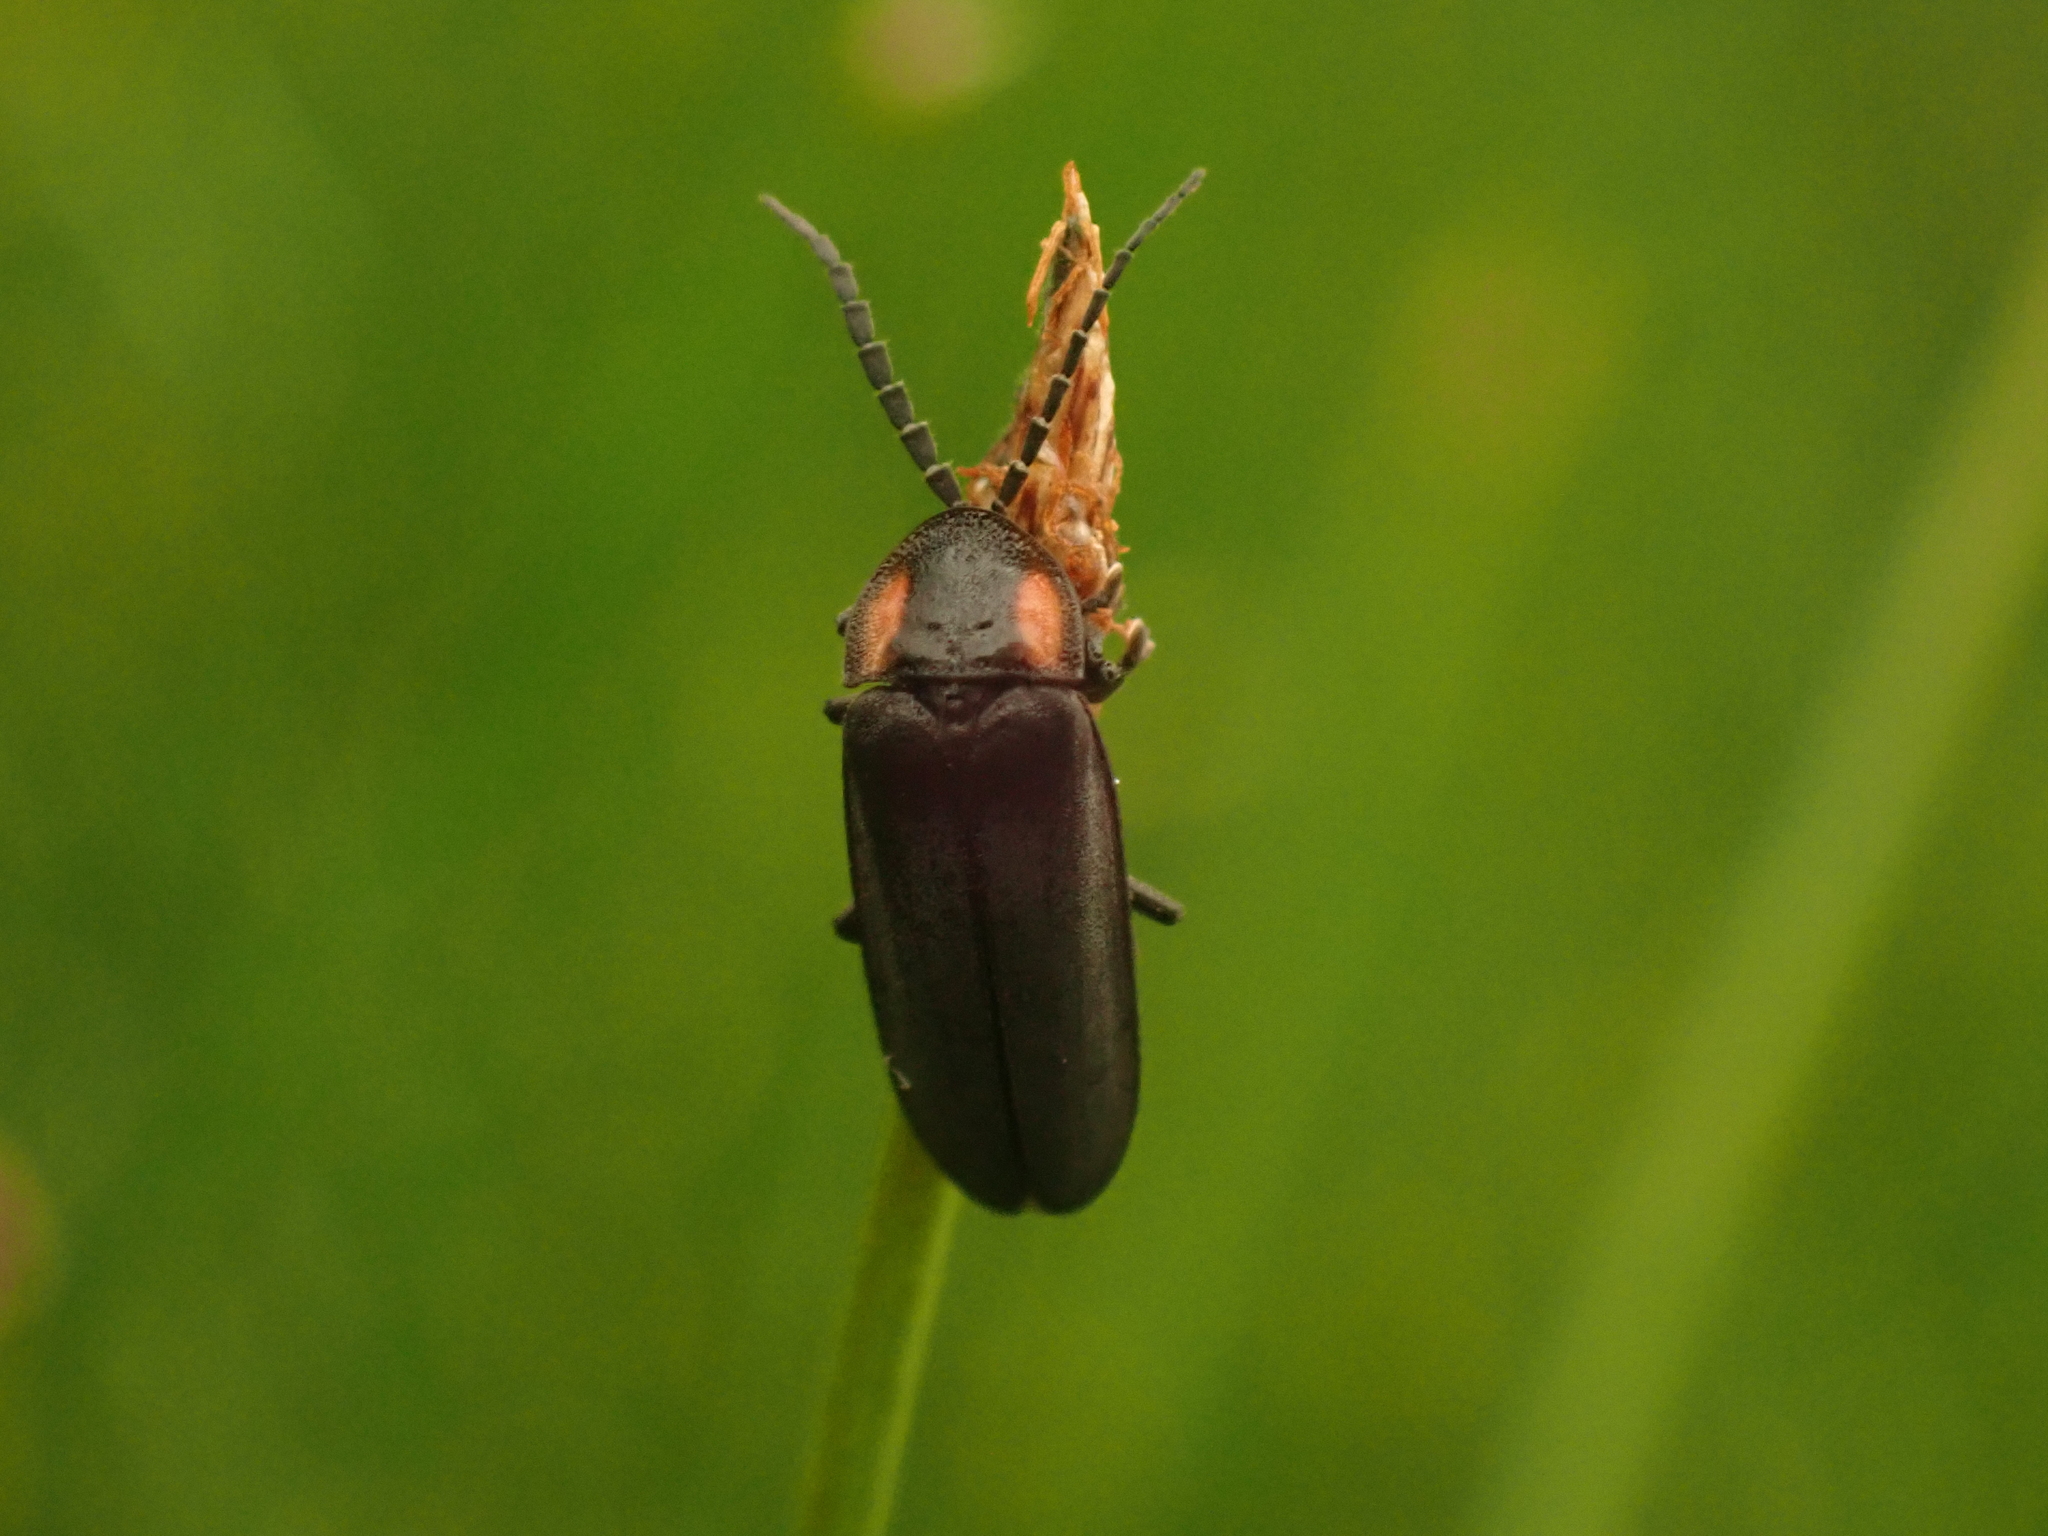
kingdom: Animalia
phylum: Arthropoda
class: Insecta
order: Coleoptera
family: Lampyridae
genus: Pyropyga
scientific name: Pyropyga nigricans
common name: Dark firefly
